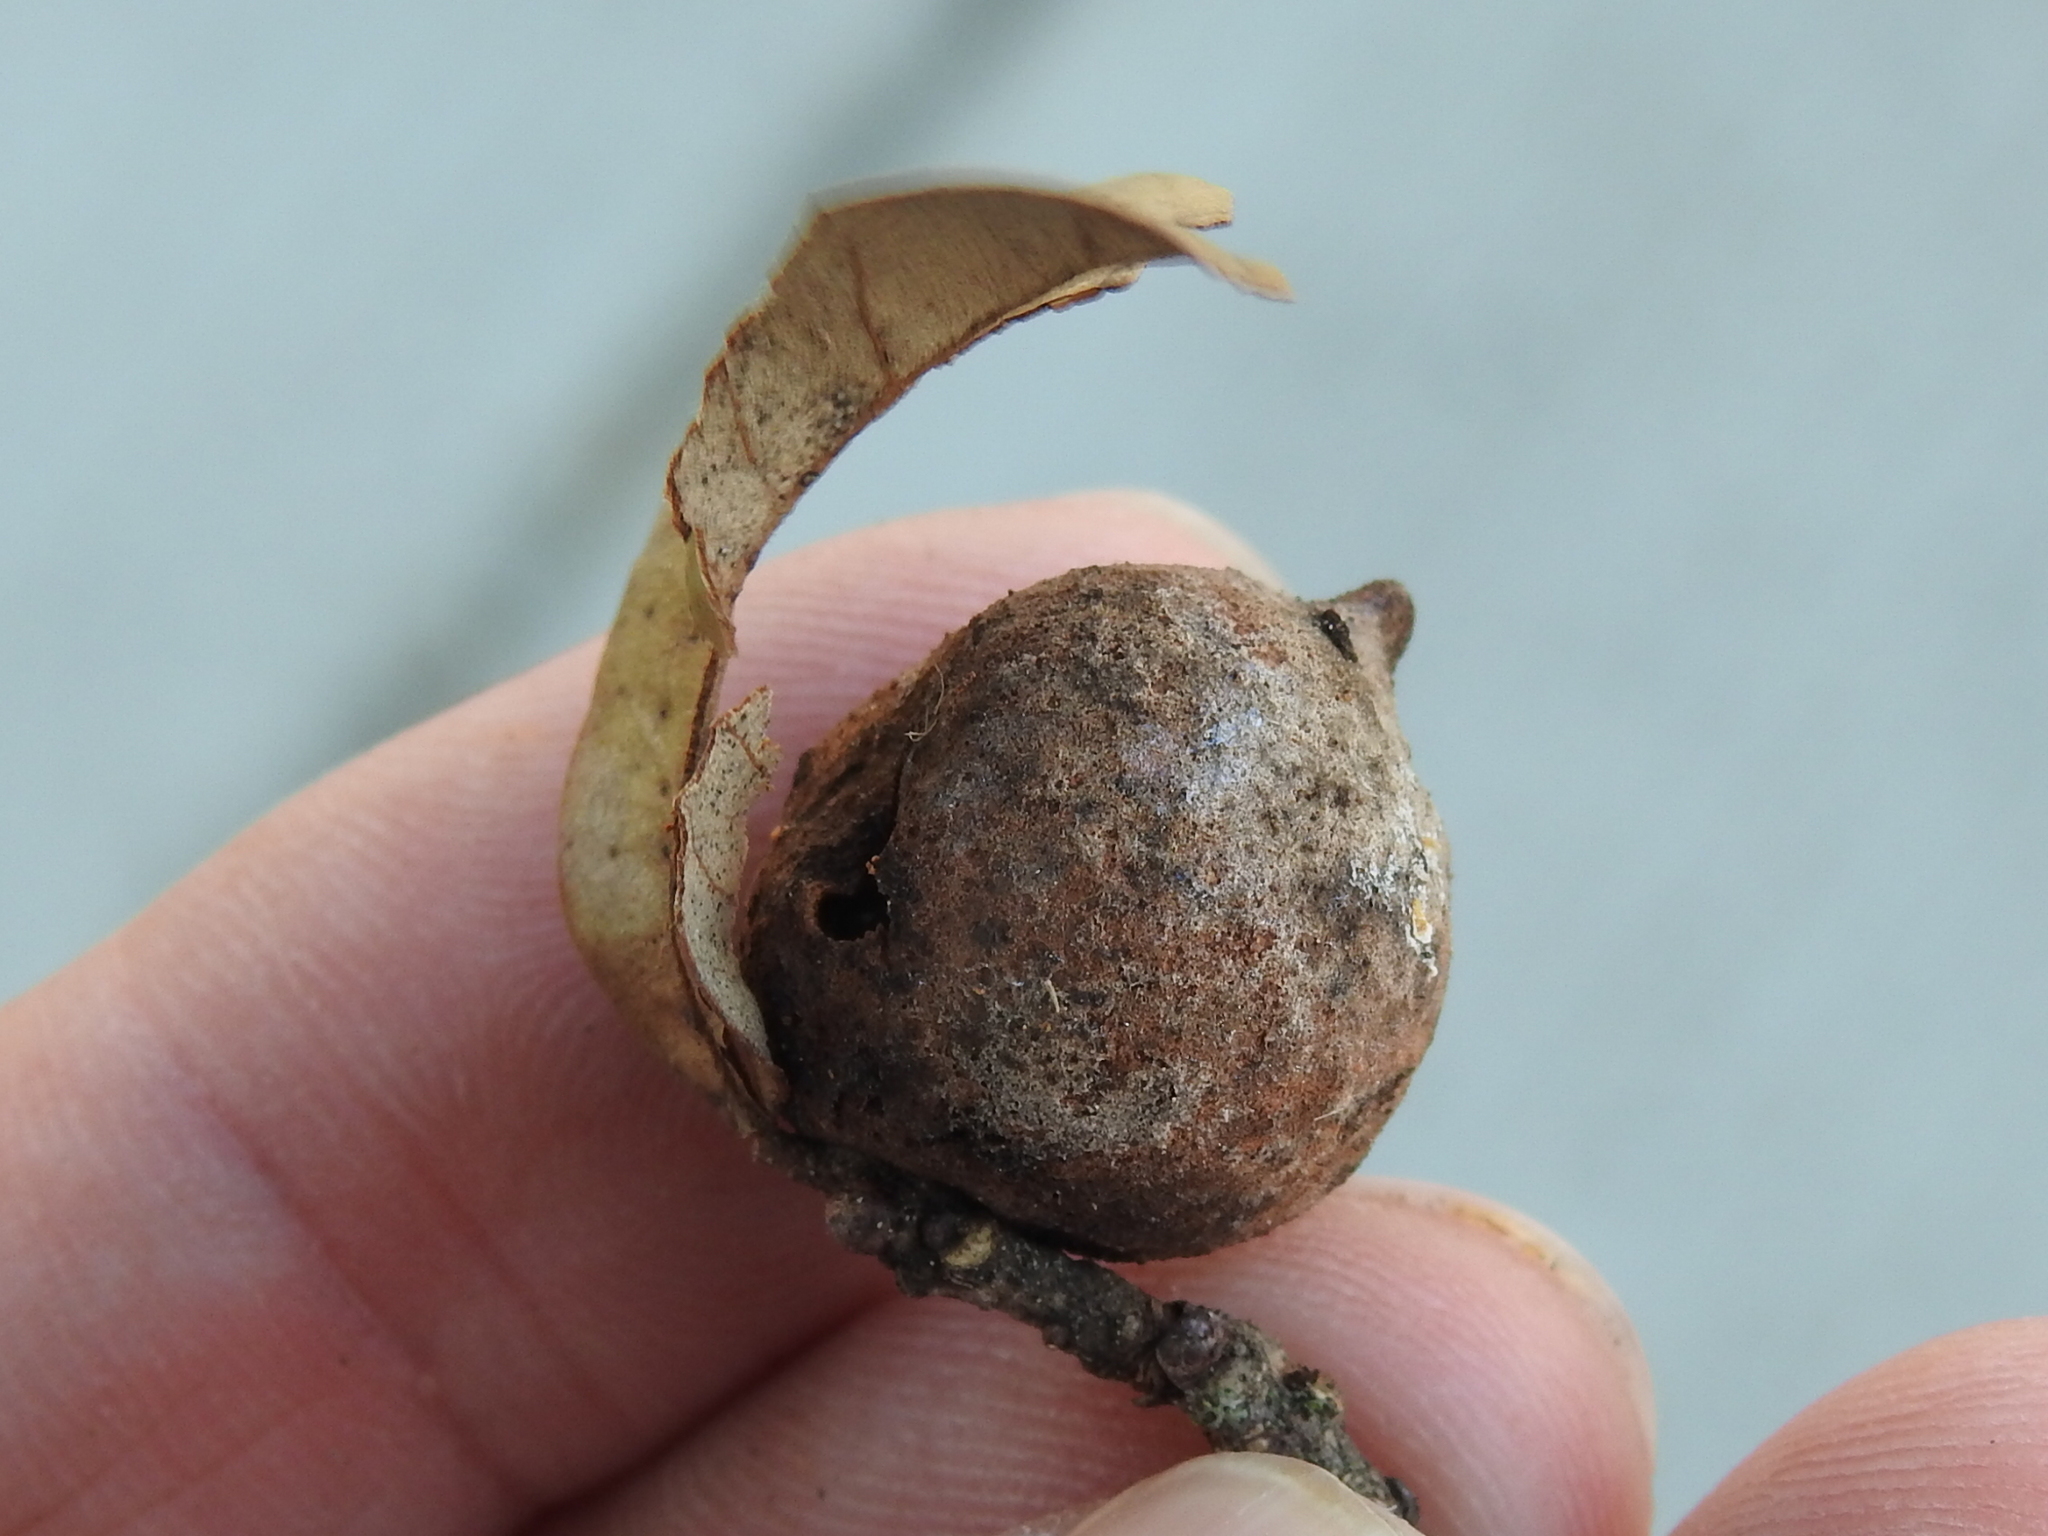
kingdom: Animalia
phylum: Arthropoda
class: Insecta
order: Hymenoptera
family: Cynipidae
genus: Disholcaspis
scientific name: Disholcaspis
